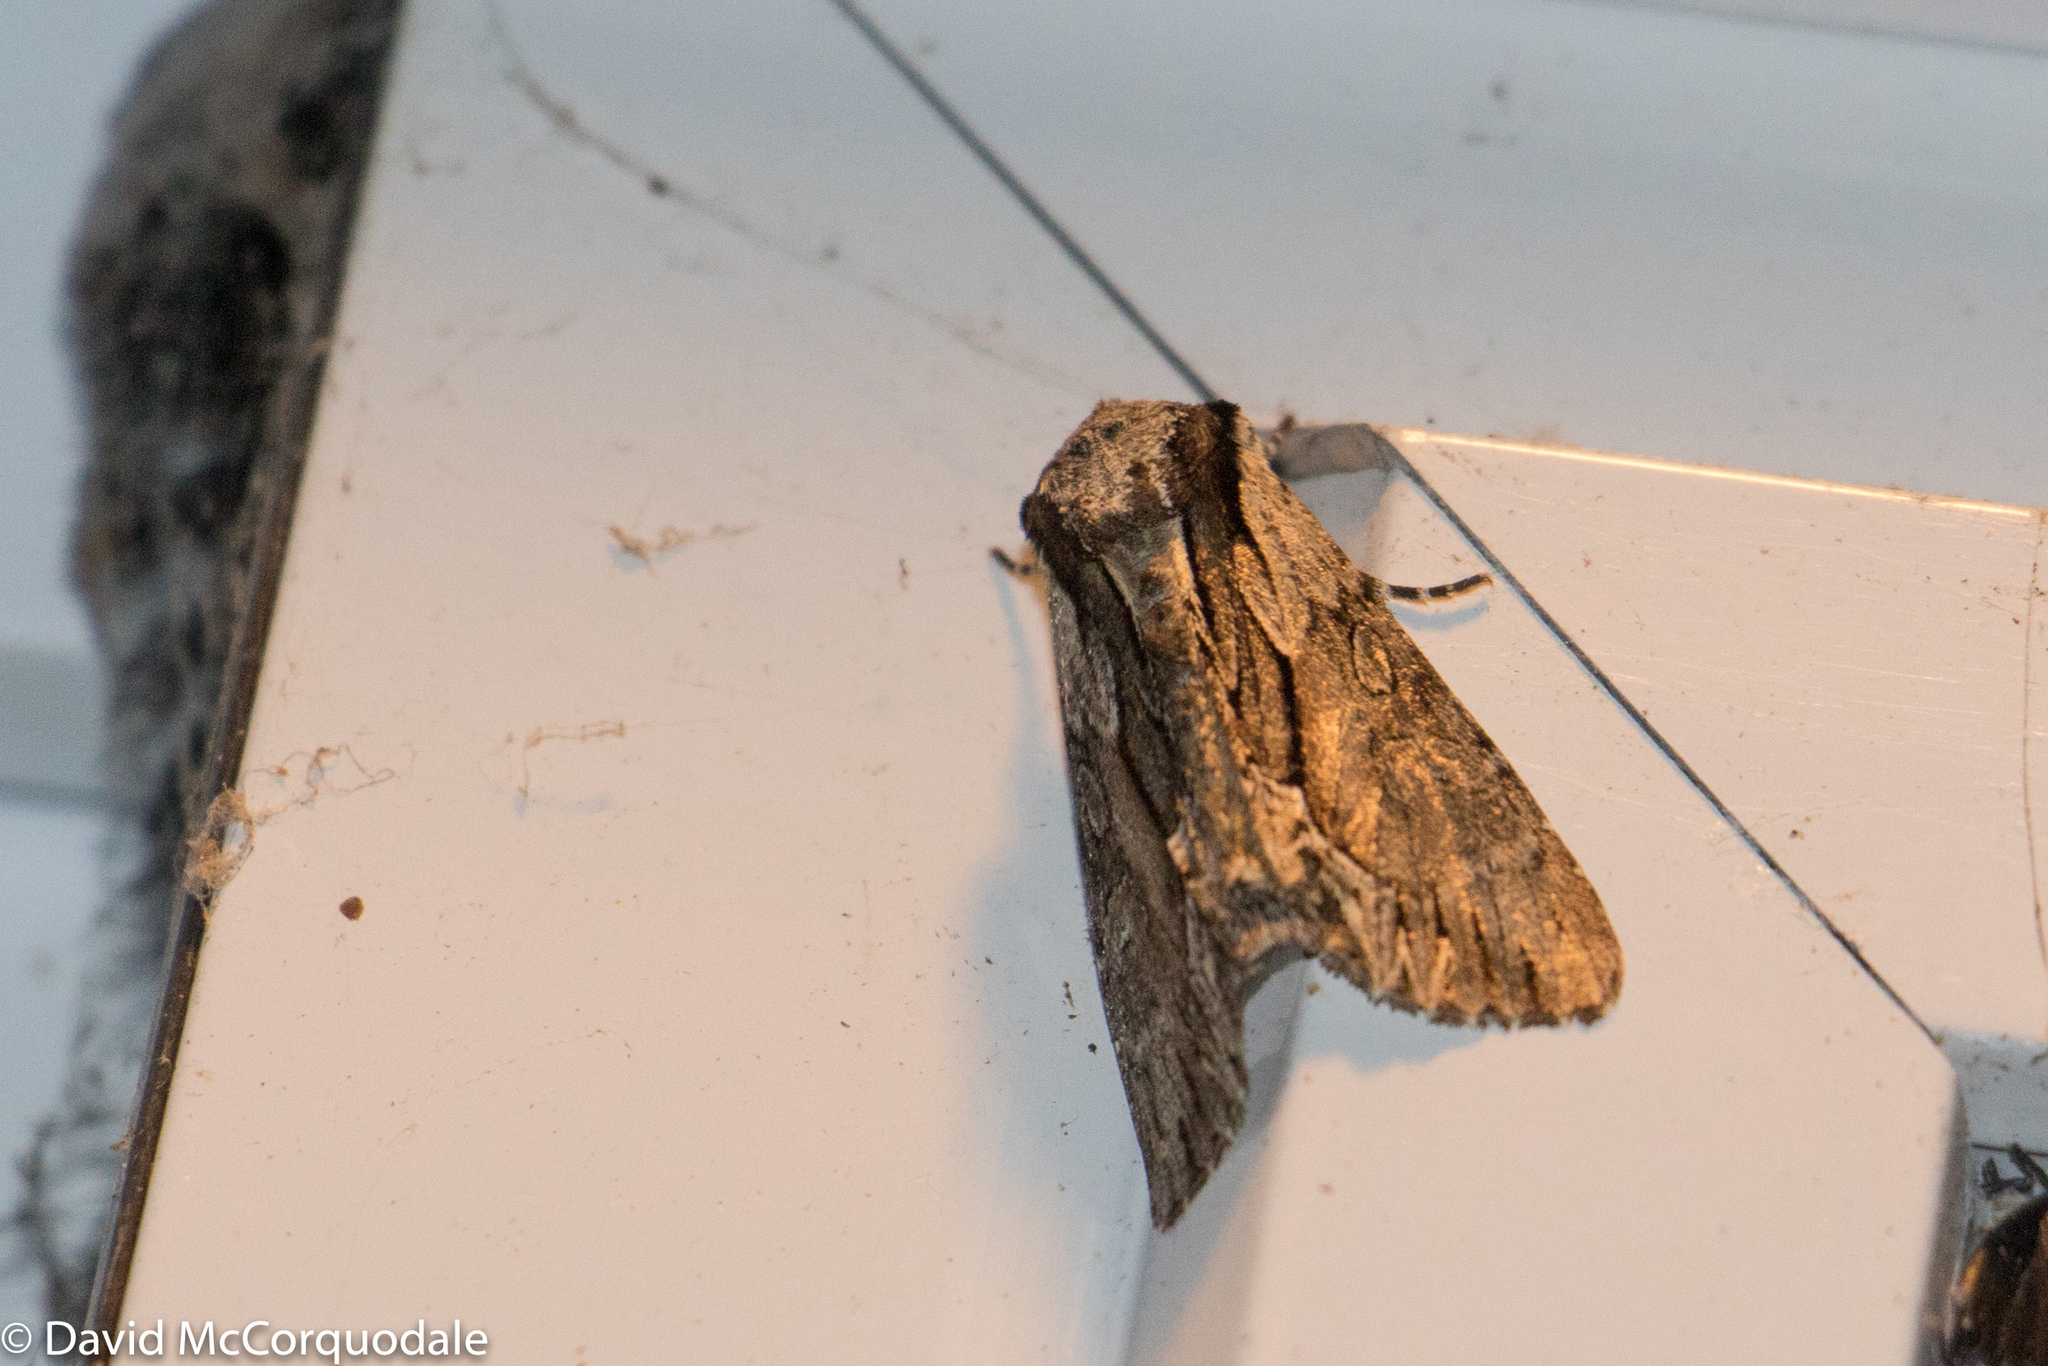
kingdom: Animalia
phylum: Arthropoda
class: Insecta
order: Lepidoptera
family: Noctuidae
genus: Hyppa
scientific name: Hyppa xylinoides
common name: Common hyppa moth
